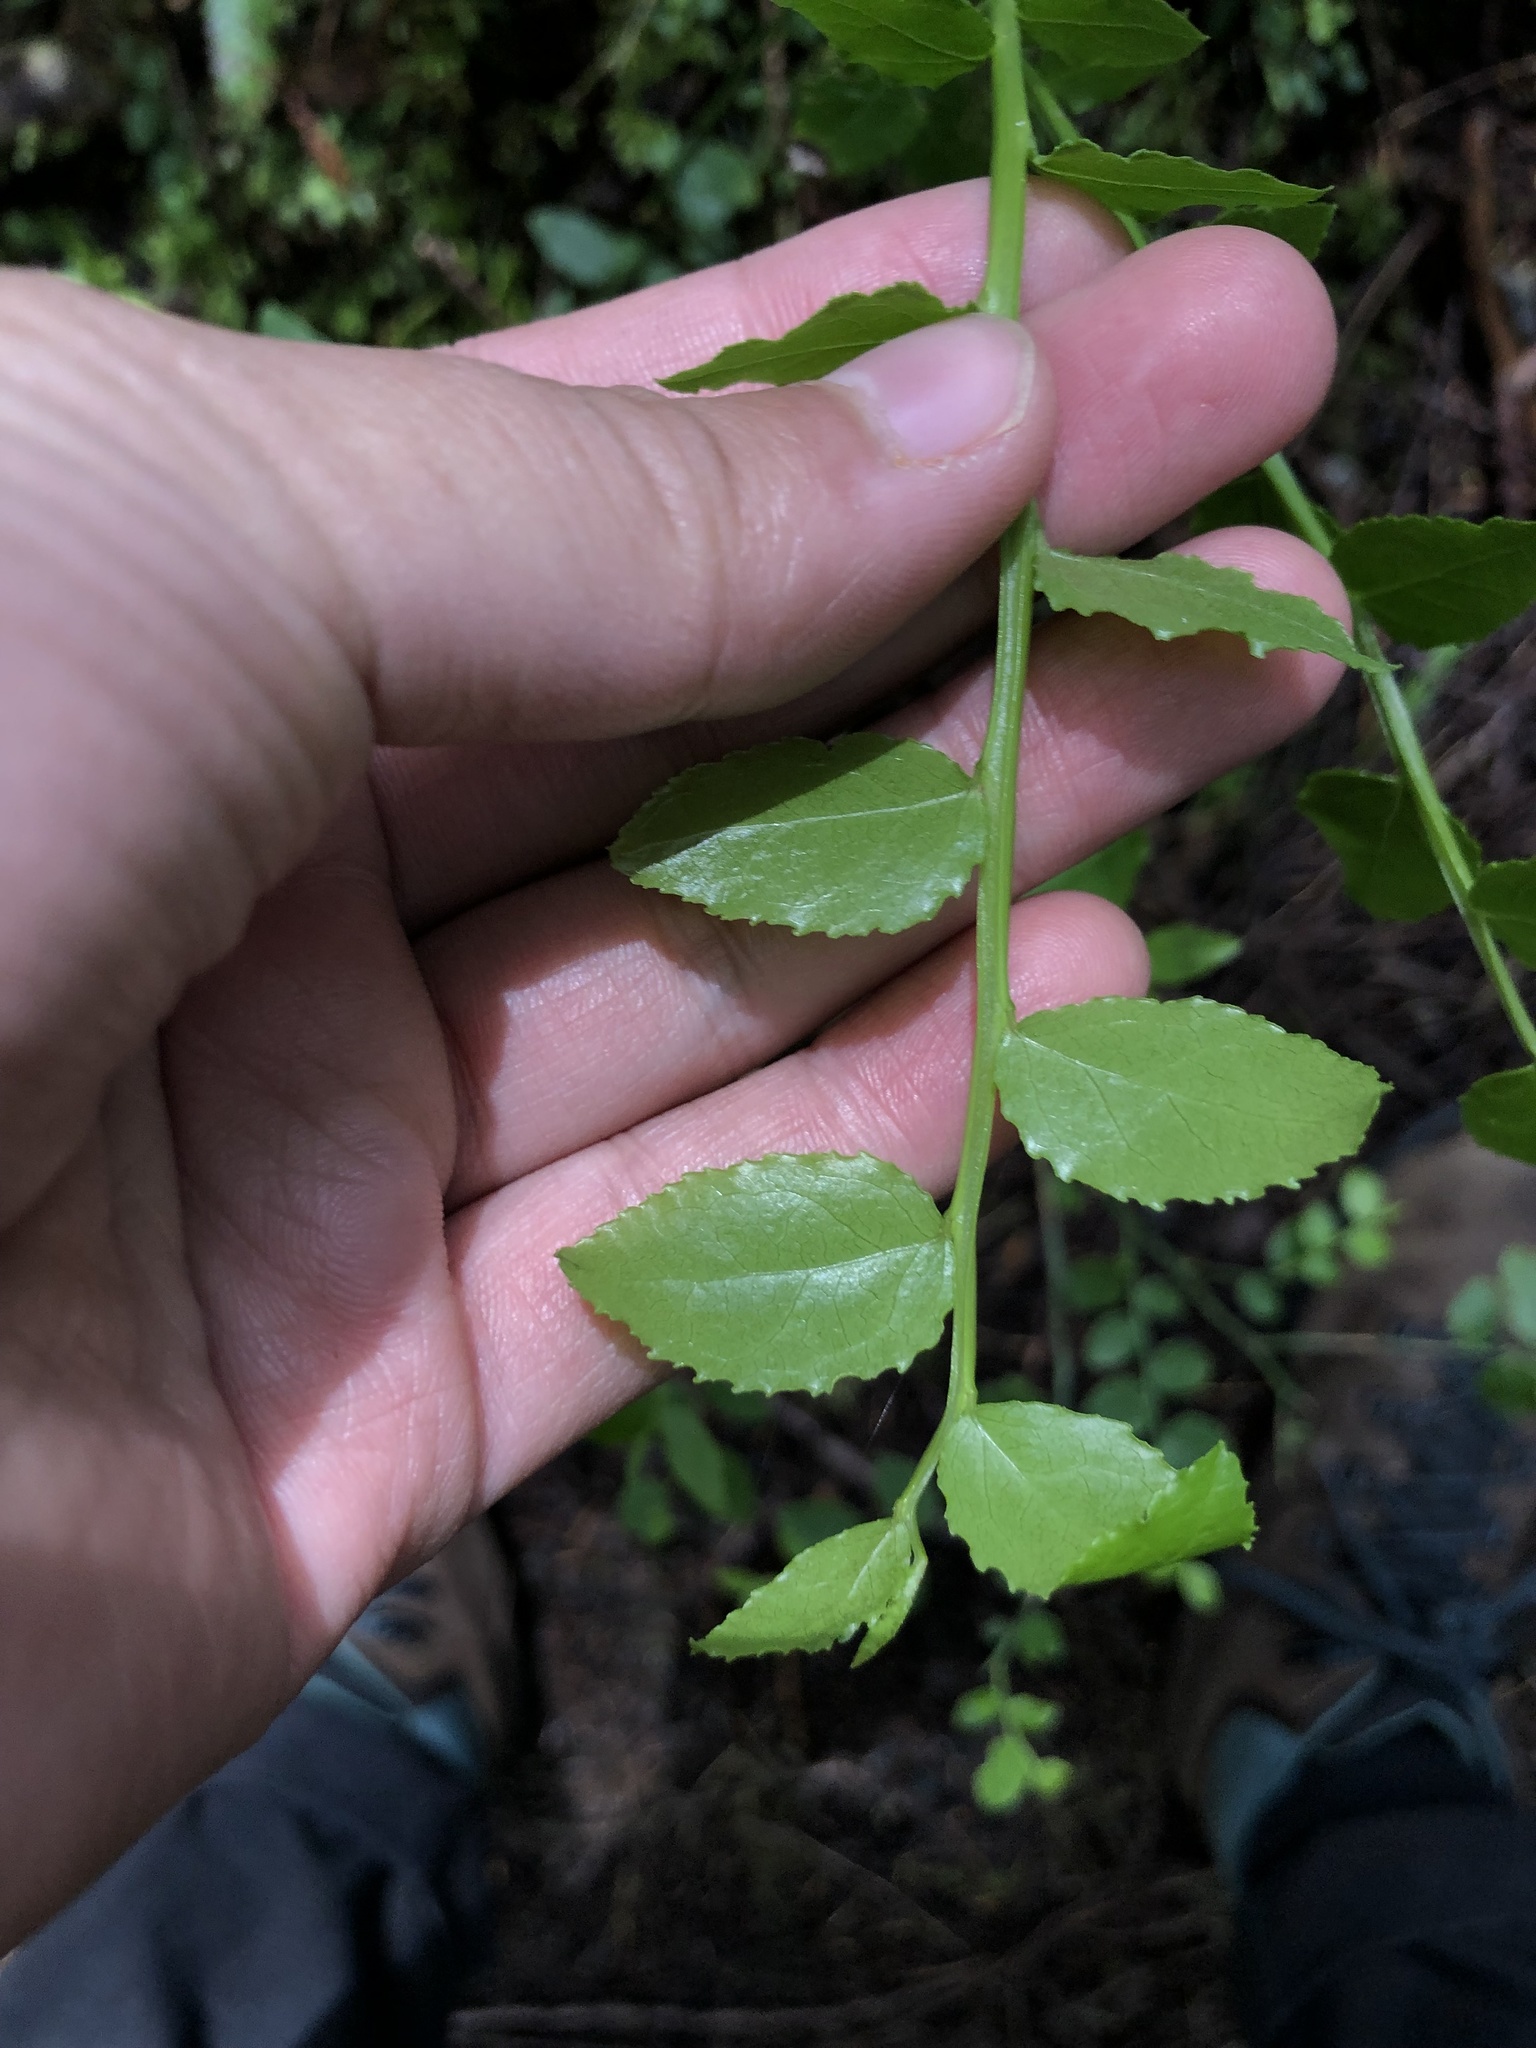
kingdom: Plantae
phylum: Tracheophyta
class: Magnoliopsida
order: Ericales
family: Ericaceae
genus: Vaccinium
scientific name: Vaccinium parvifolium
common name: Red-huckleberry
